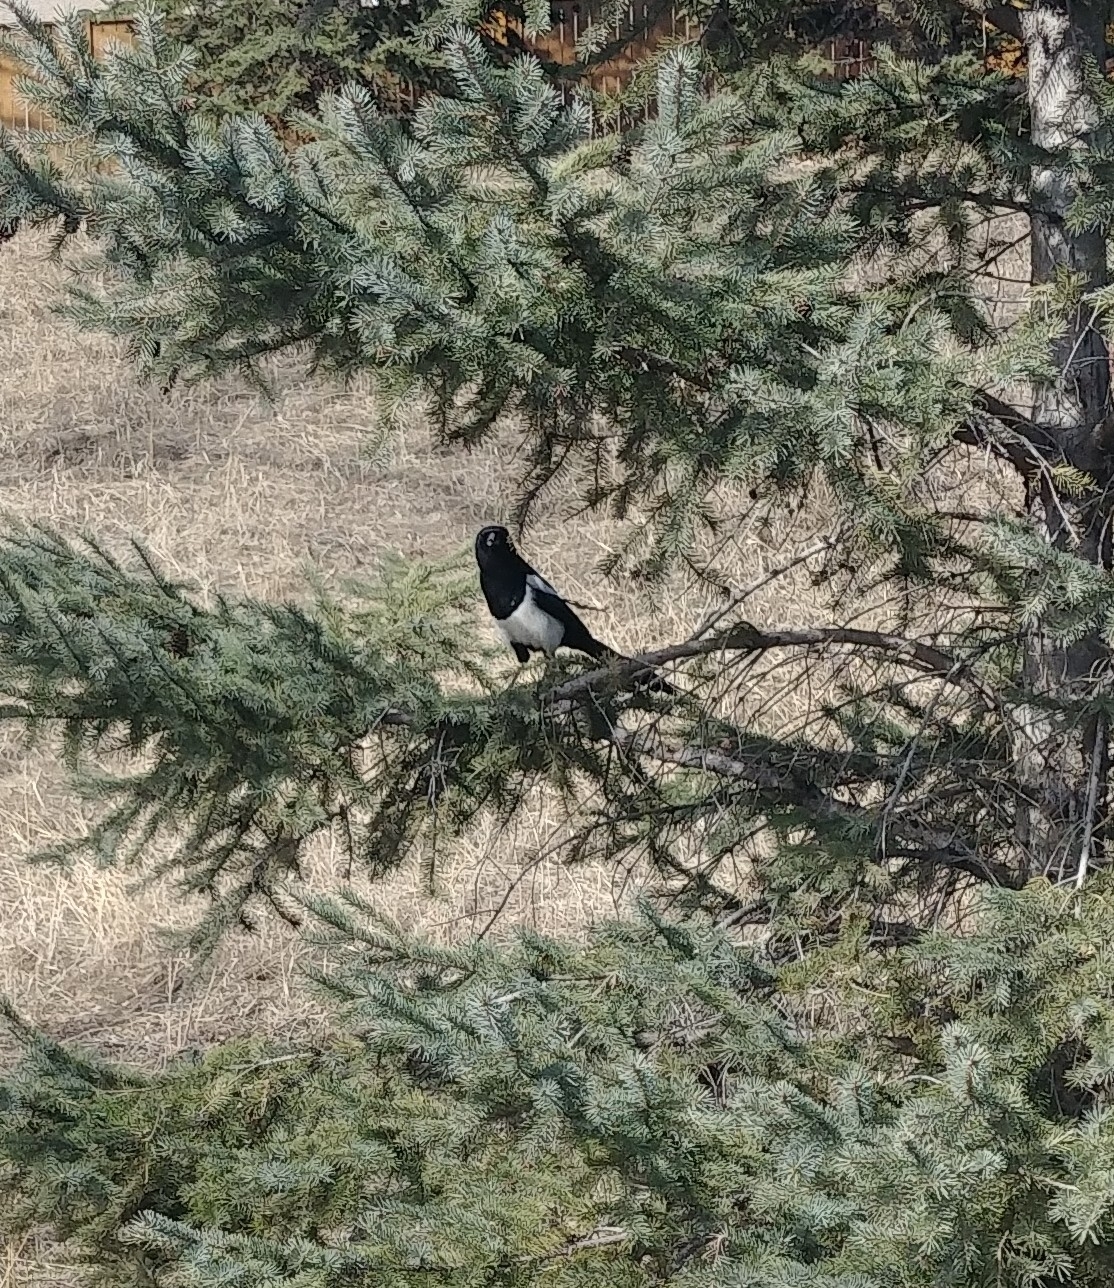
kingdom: Animalia
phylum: Chordata
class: Aves
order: Passeriformes
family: Corvidae
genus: Pica
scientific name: Pica hudsonia
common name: Black-billed magpie
